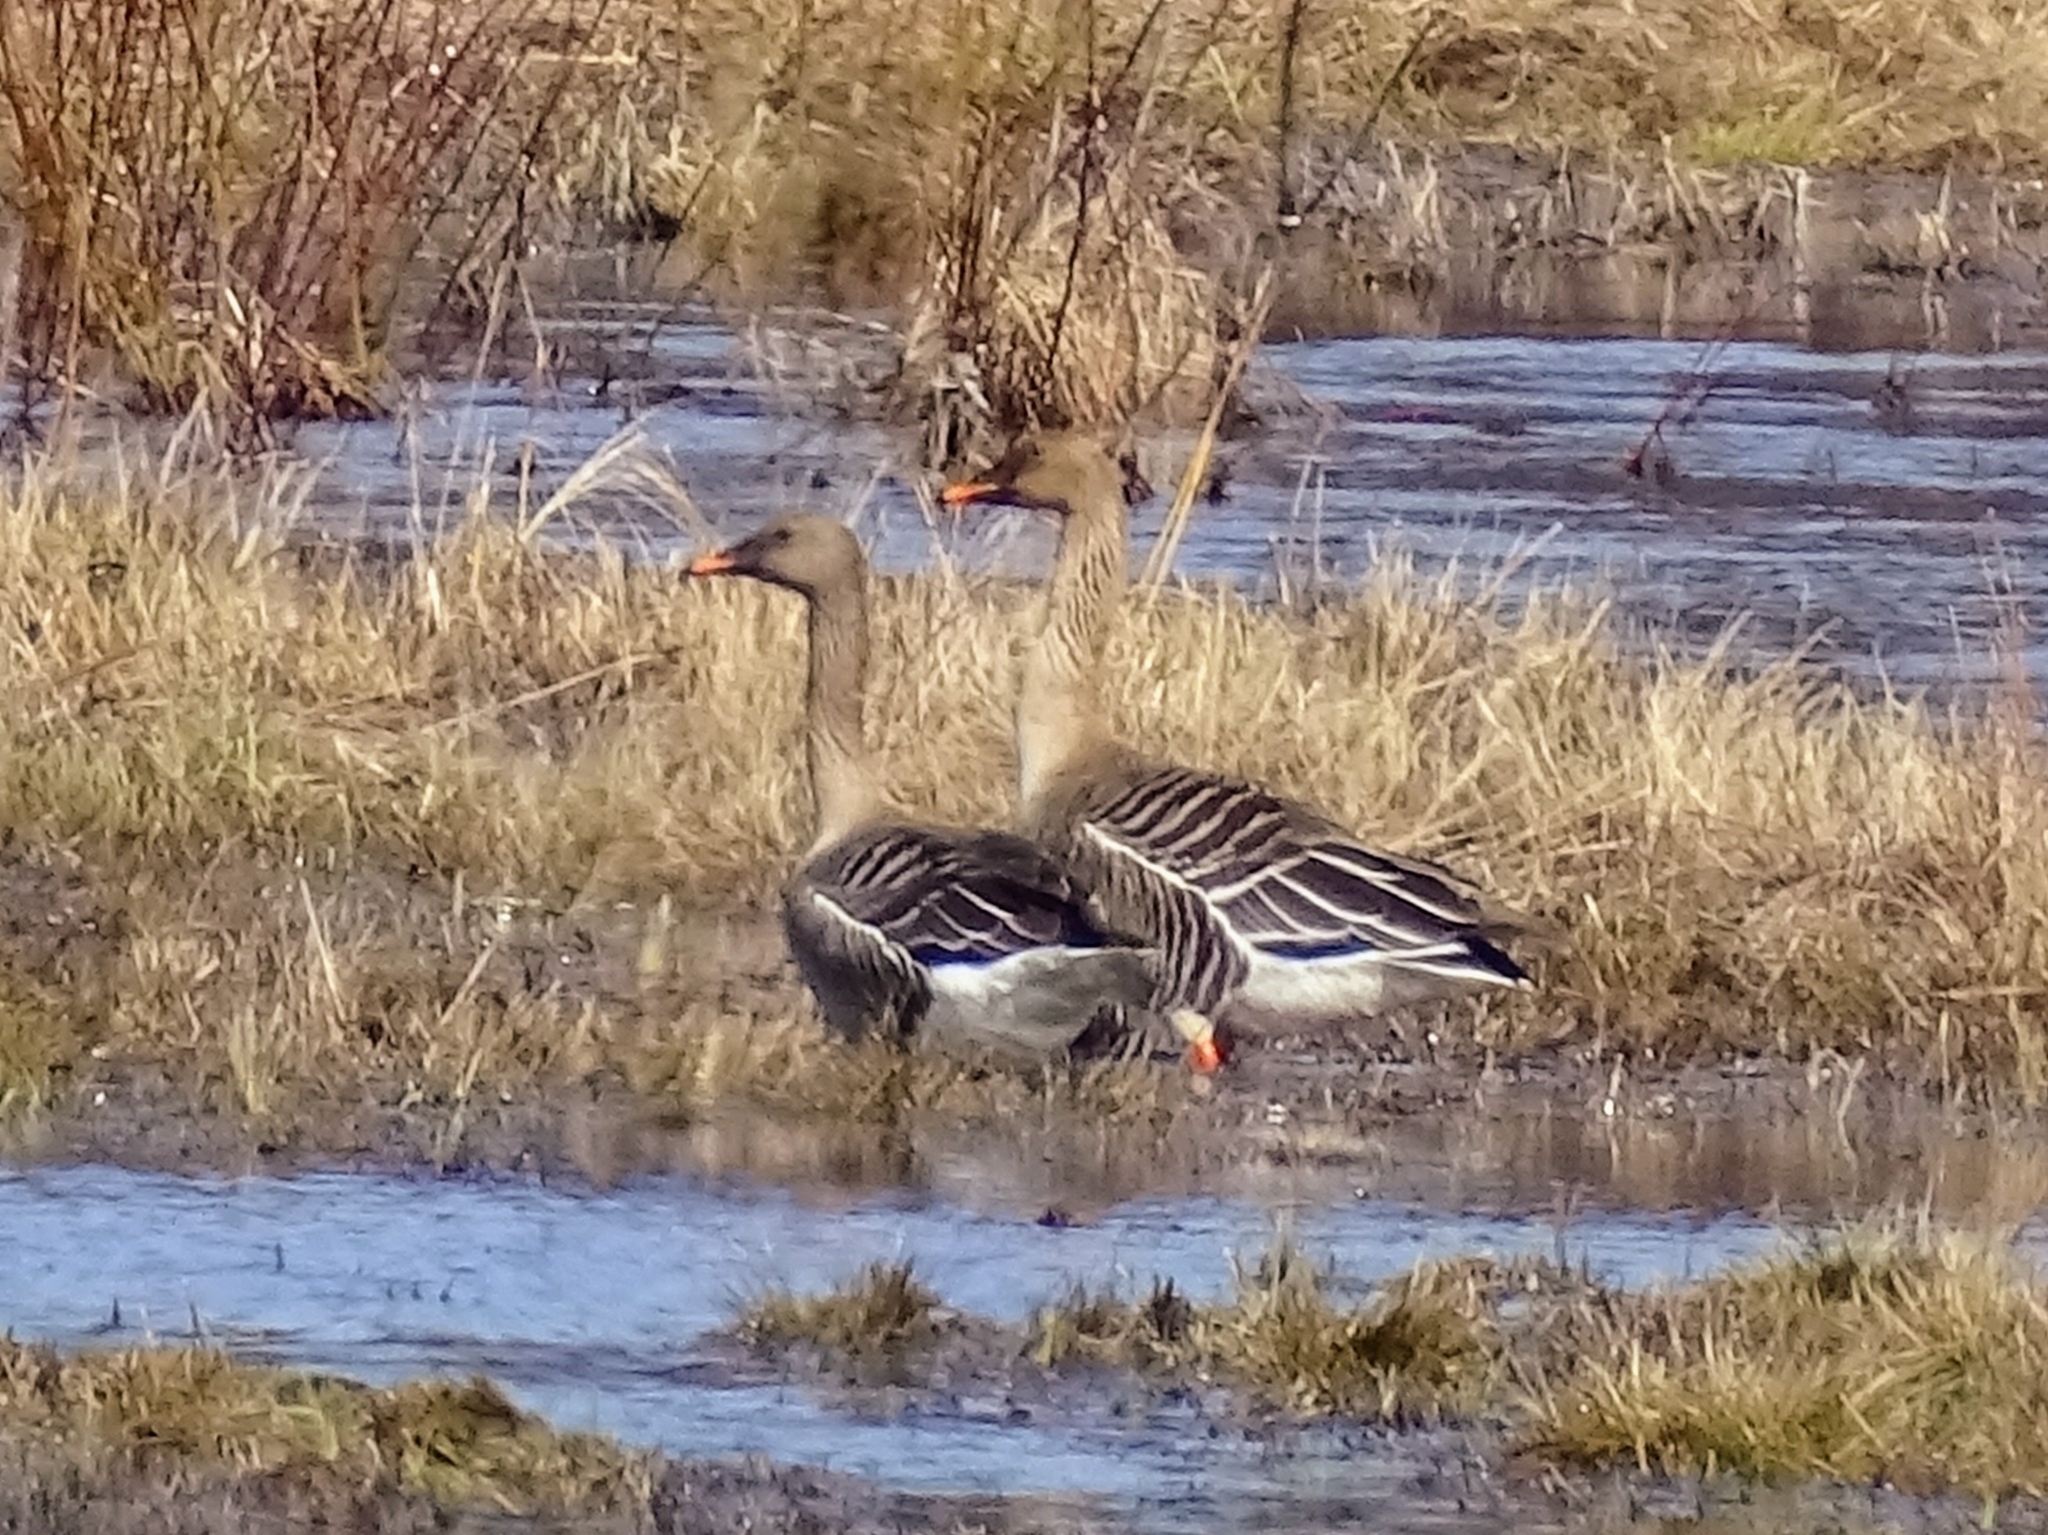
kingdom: Animalia
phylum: Chordata
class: Aves
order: Anseriformes
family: Anatidae
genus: Anser
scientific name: Anser fabalis
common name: Bean goose
